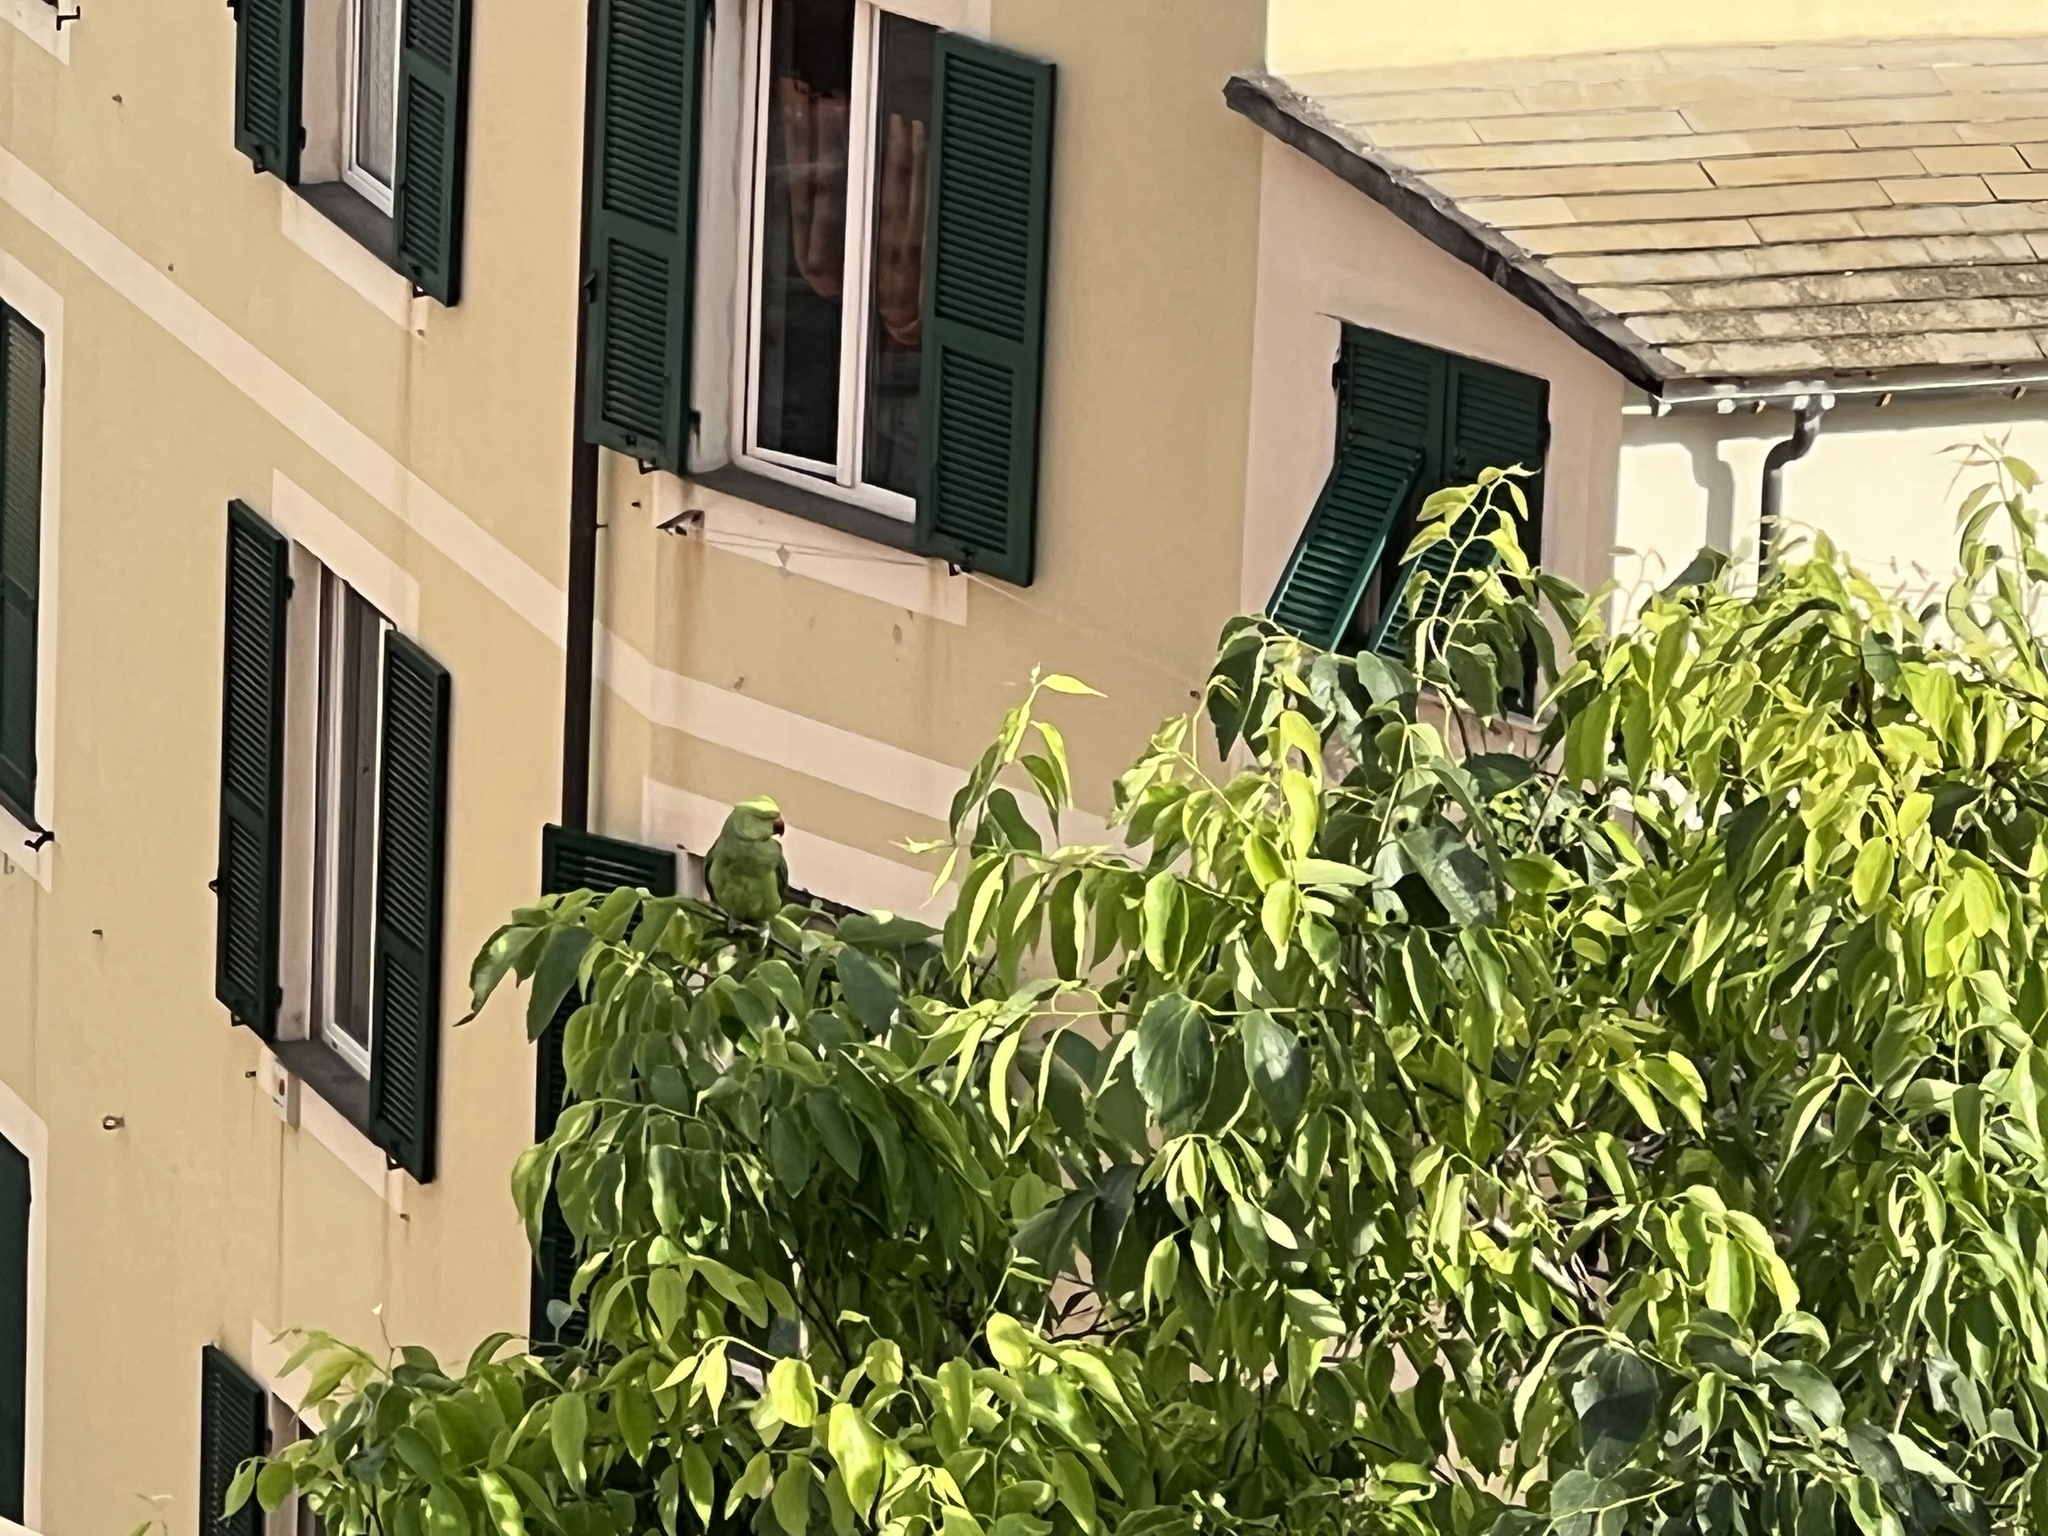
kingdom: Animalia
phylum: Chordata
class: Aves
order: Psittaciformes
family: Psittacidae
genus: Psittacula
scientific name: Psittacula krameri
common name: Rose-ringed parakeet
